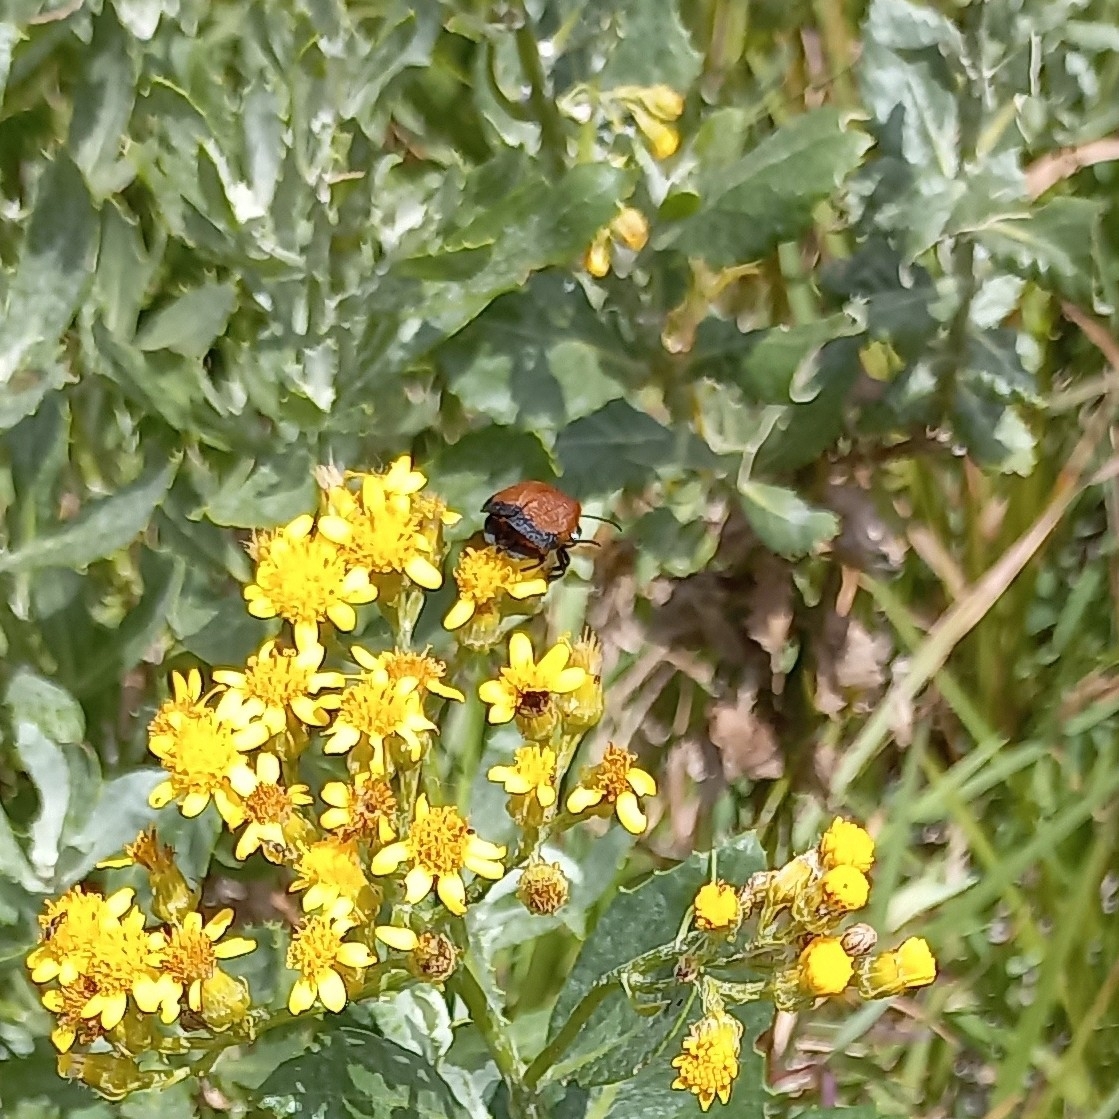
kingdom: Plantae
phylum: Tracheophyta
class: Magnoliopsida
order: Asterales
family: Asteraceae
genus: Senecio
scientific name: Senecio halimifolius
